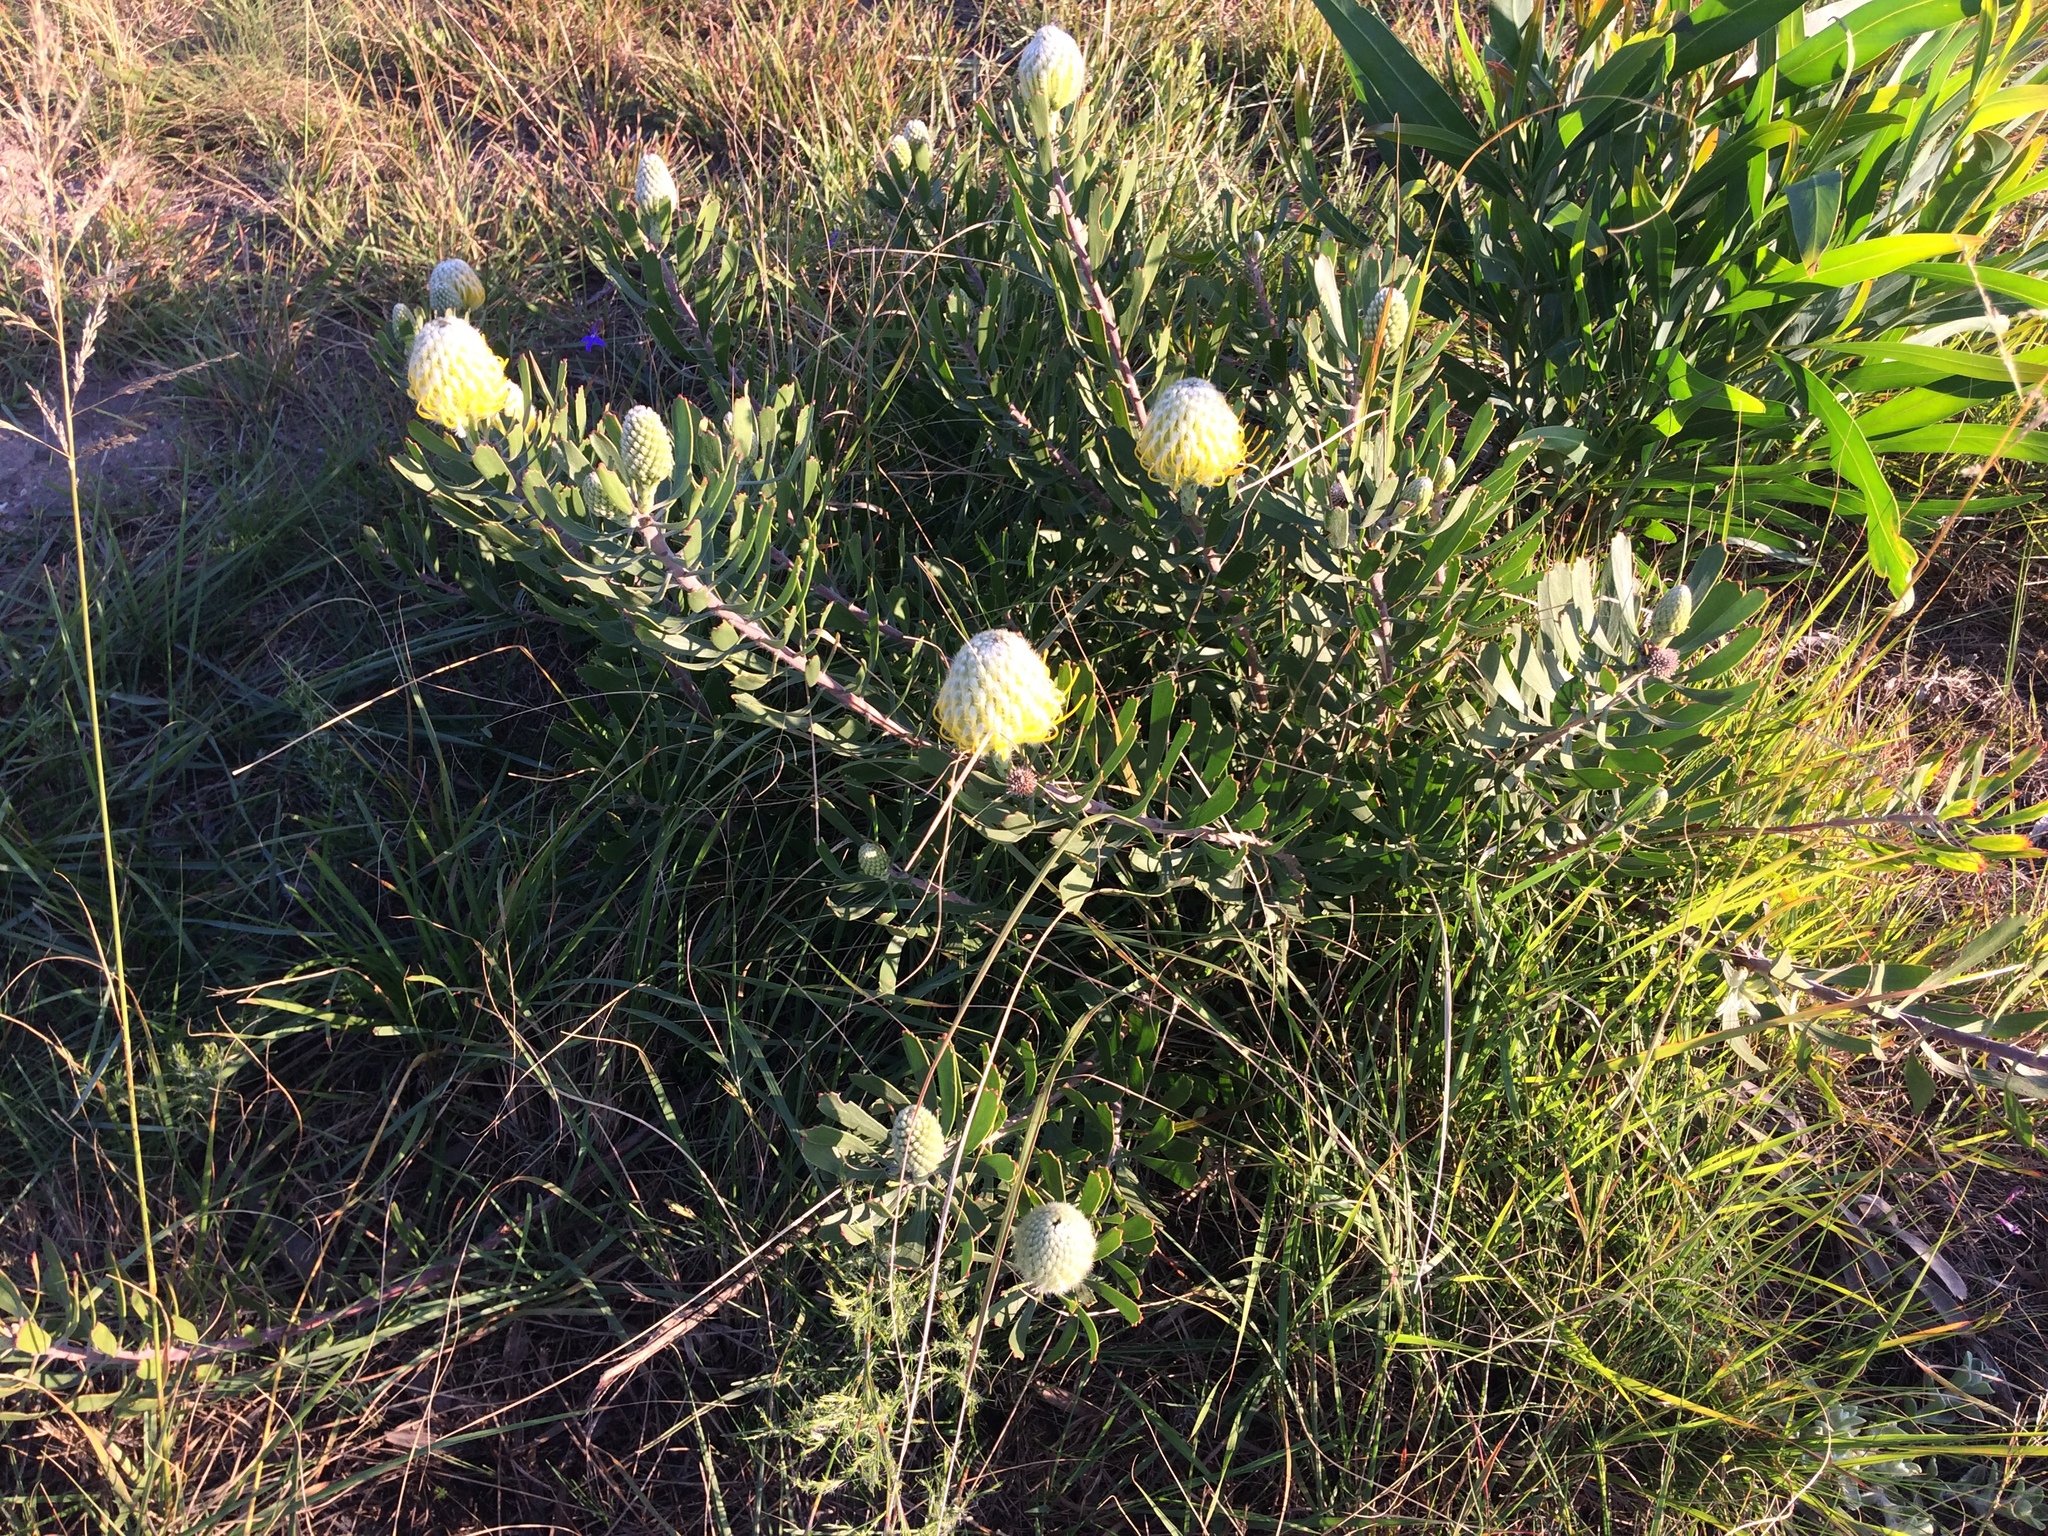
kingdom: Plantae
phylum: Tracheophyta
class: Magnoliopsida
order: Proteales
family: Proteaceae
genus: Leucospermum
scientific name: Leucospermum cuneiforme
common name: Common pincushion
